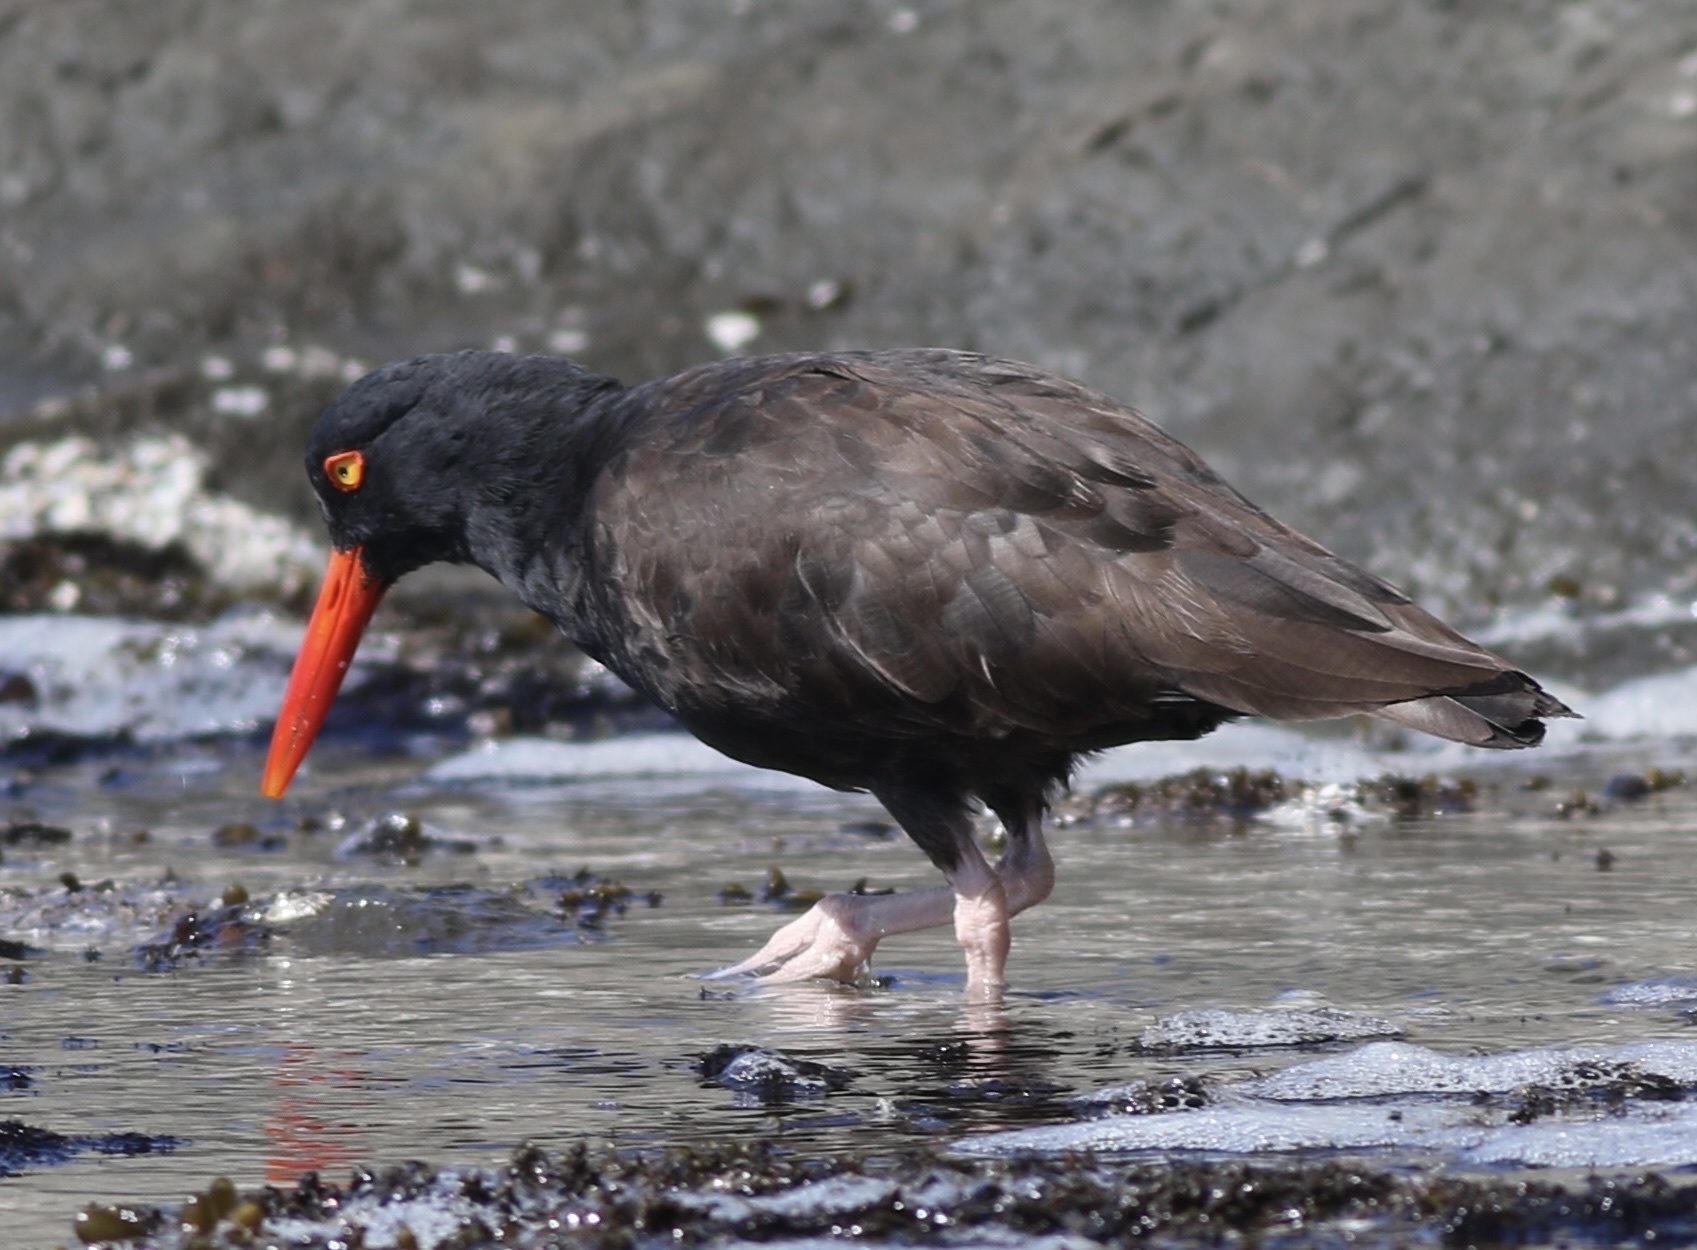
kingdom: Animalia
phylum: Chordata
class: Aves
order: Charadriiformes
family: Haematopodidae
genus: Haematopus
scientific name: Haematopus bachmani
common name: Black oystercatcher
